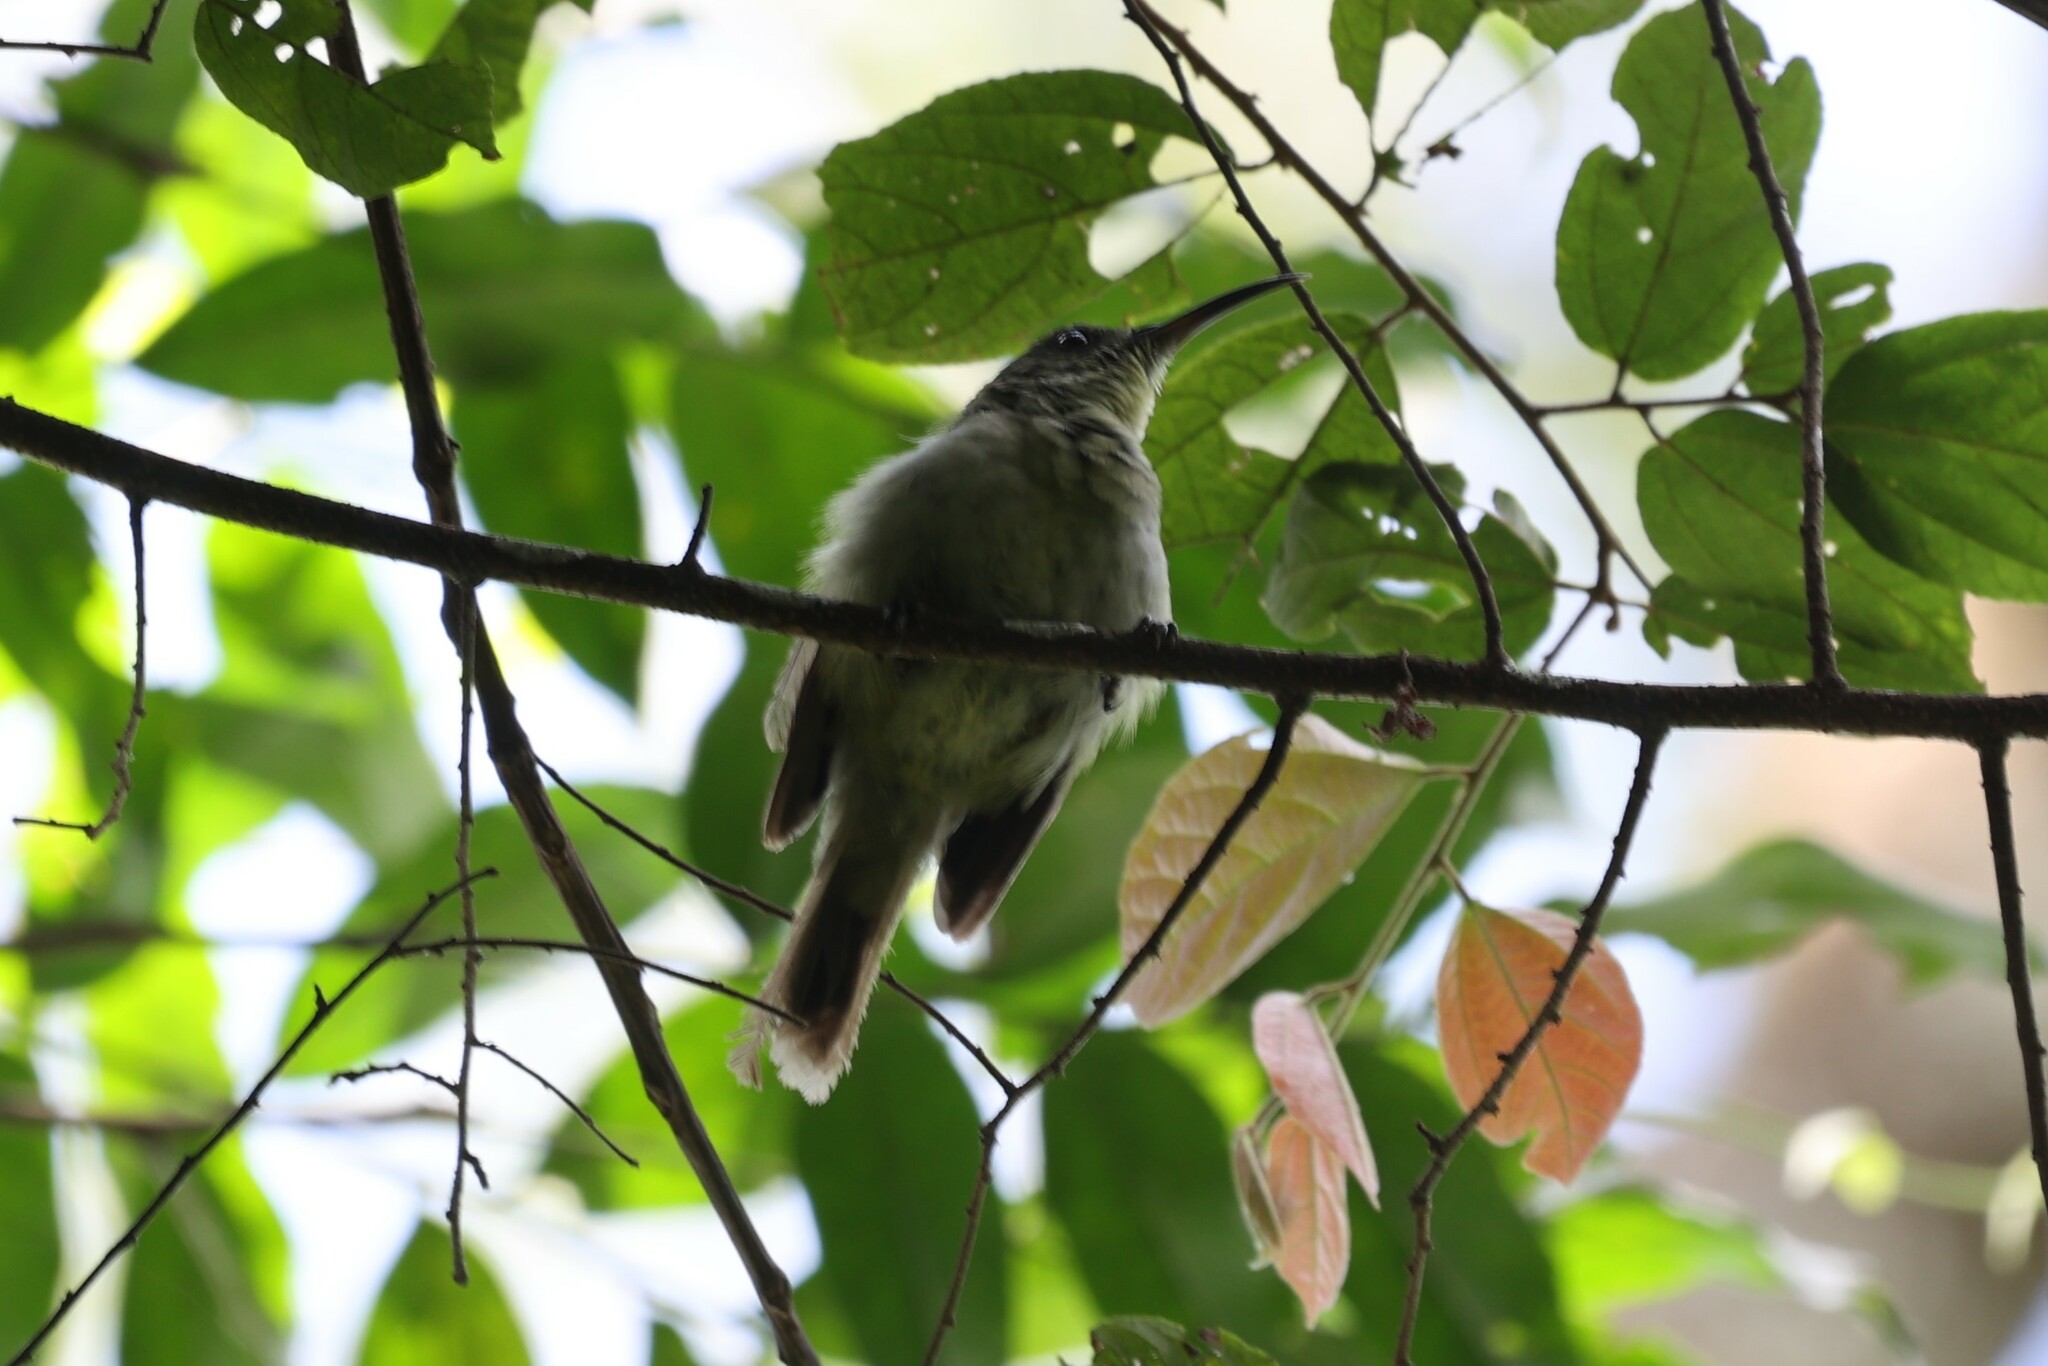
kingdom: Animalia
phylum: Chordata
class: Aves
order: Passeriformes
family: Nectariniidae
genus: Cyanomitra
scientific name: Cyanomitra olivacea
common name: Olive sunbird
